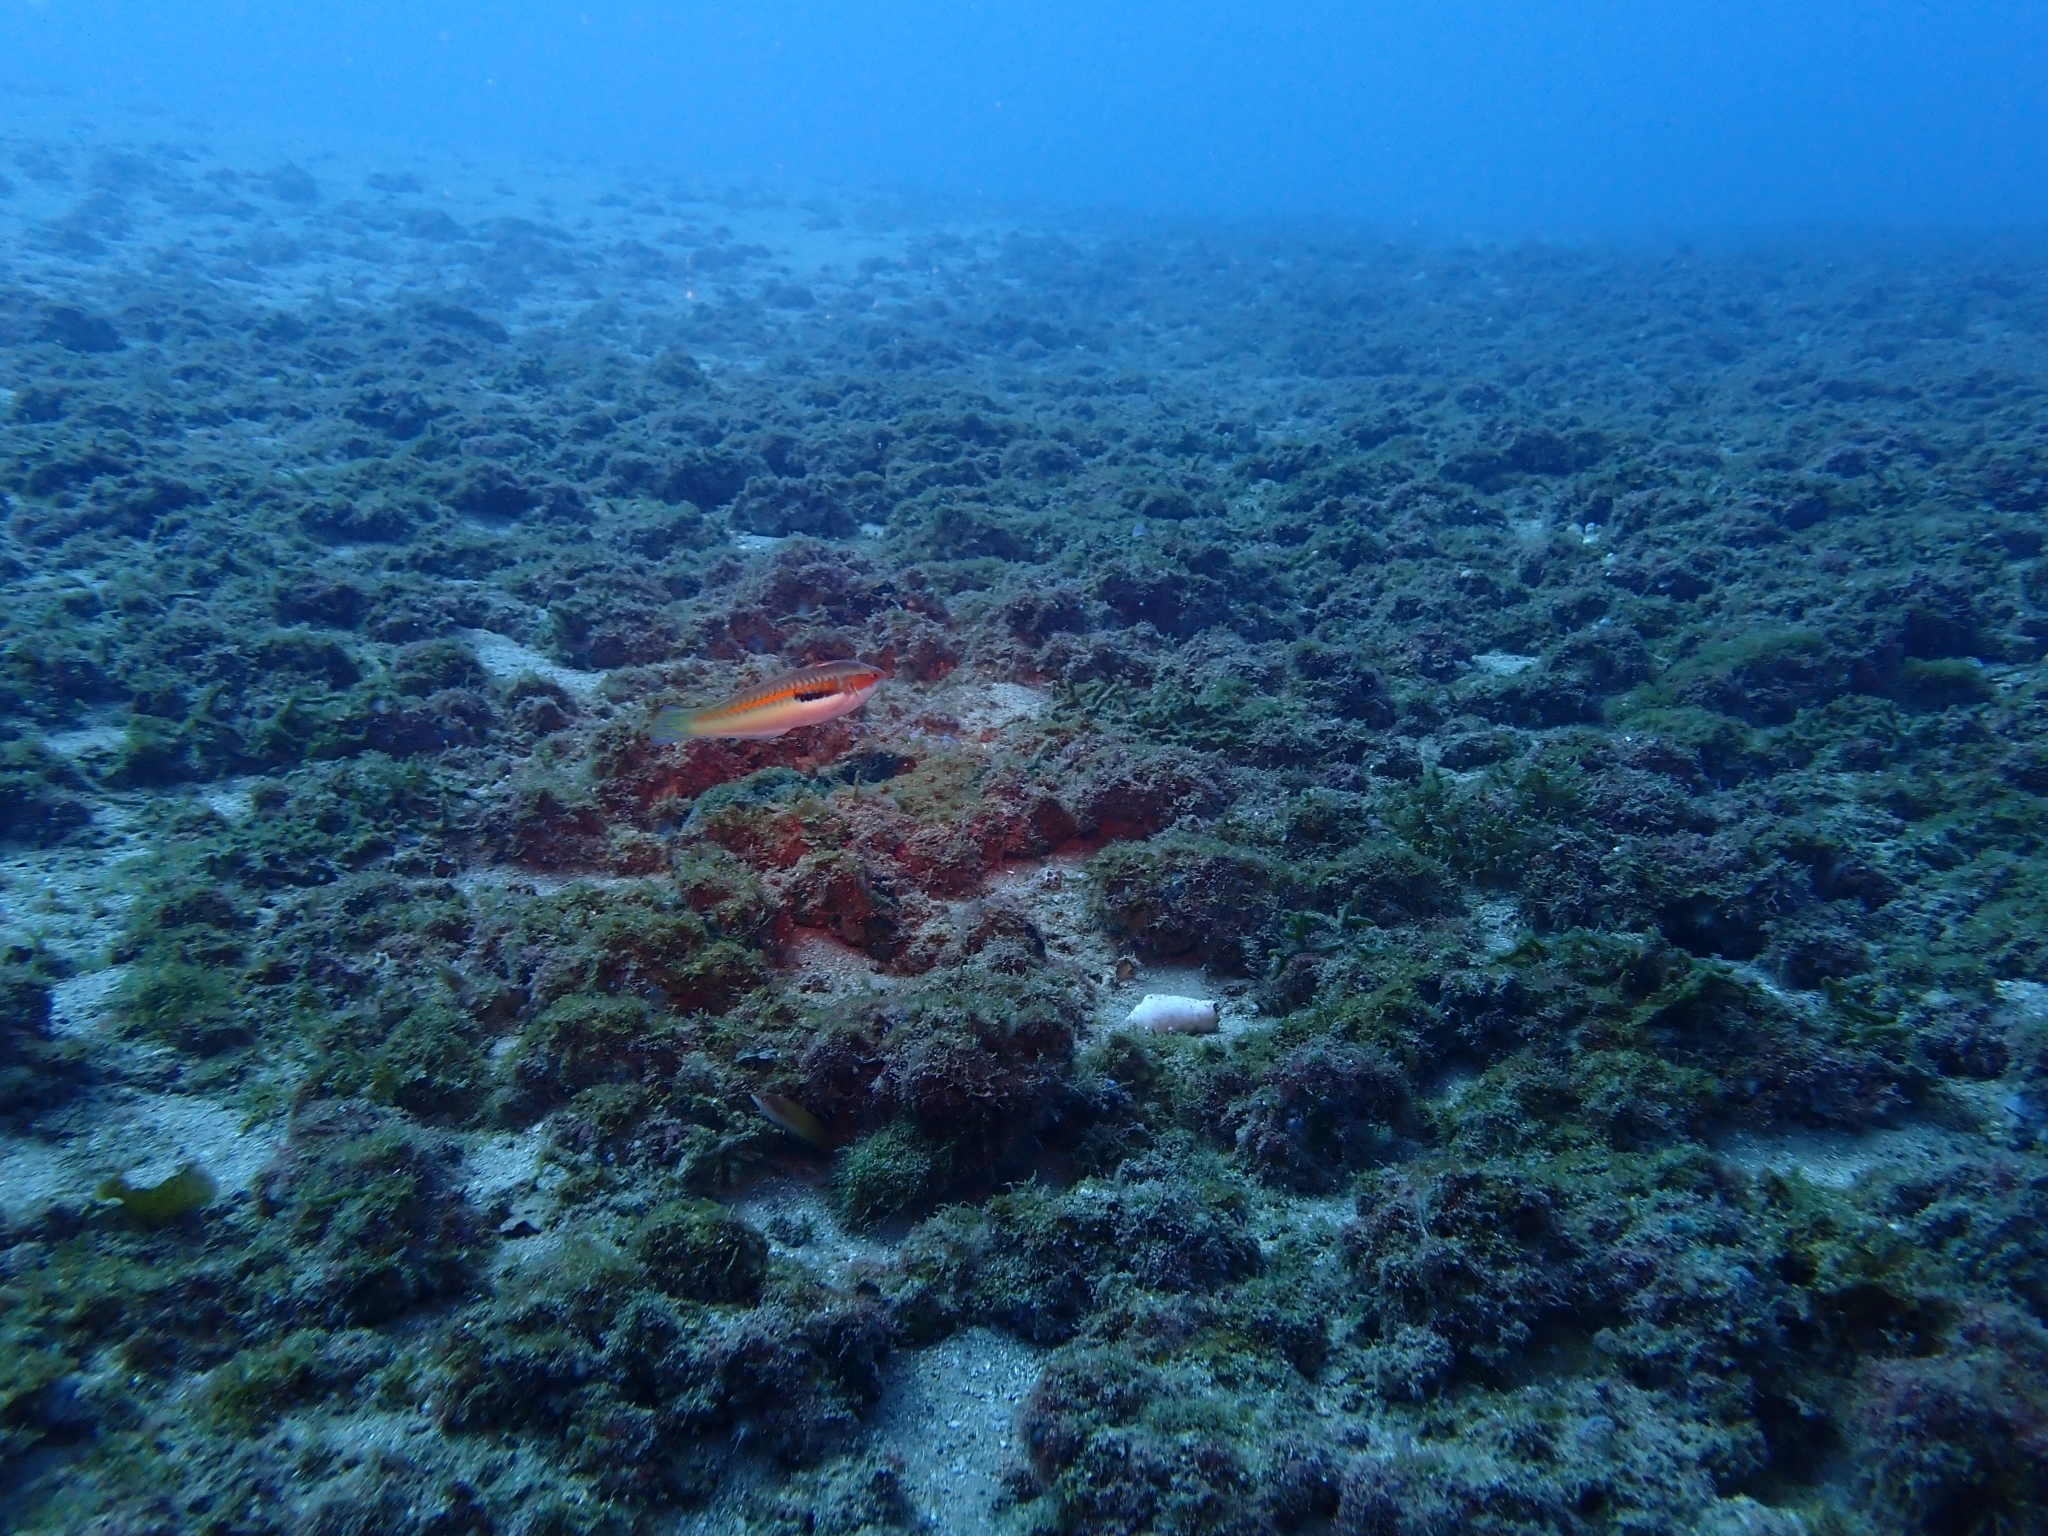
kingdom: Animalia
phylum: Chordata
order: Perciformes
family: Labridae
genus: Coris
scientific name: Coris julis
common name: Rainbow wrasse
